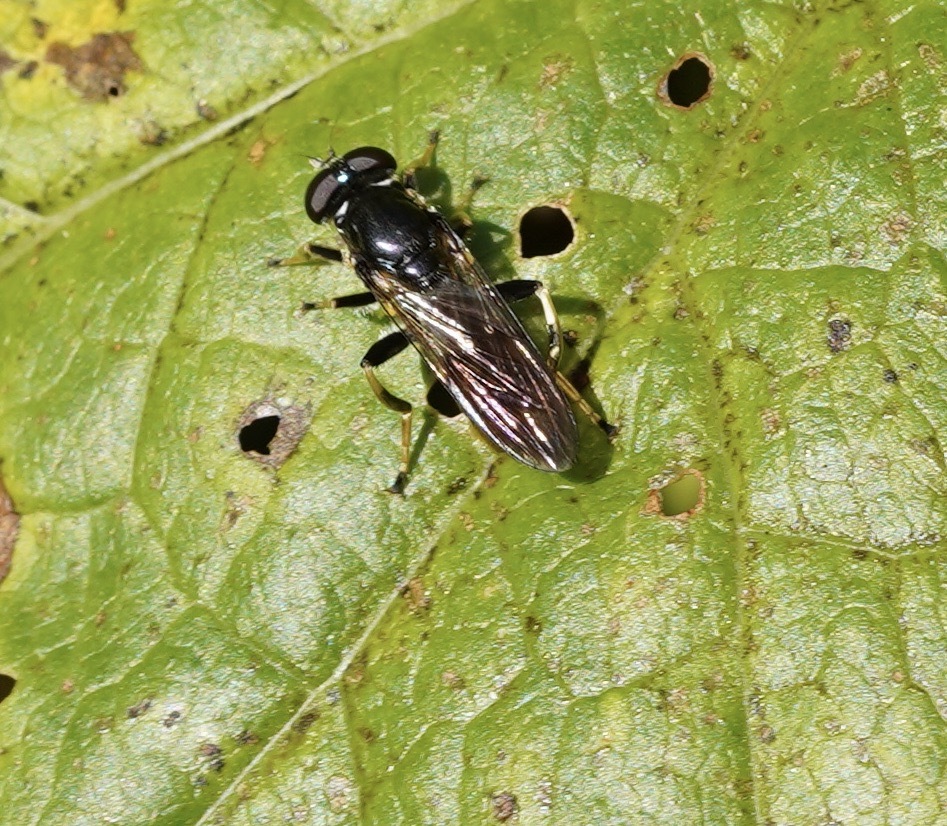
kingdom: Animalia
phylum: Arthropoda
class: Insecta
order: Diptera
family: Syrphidae
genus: Xylota
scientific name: Xylota sylvarum
